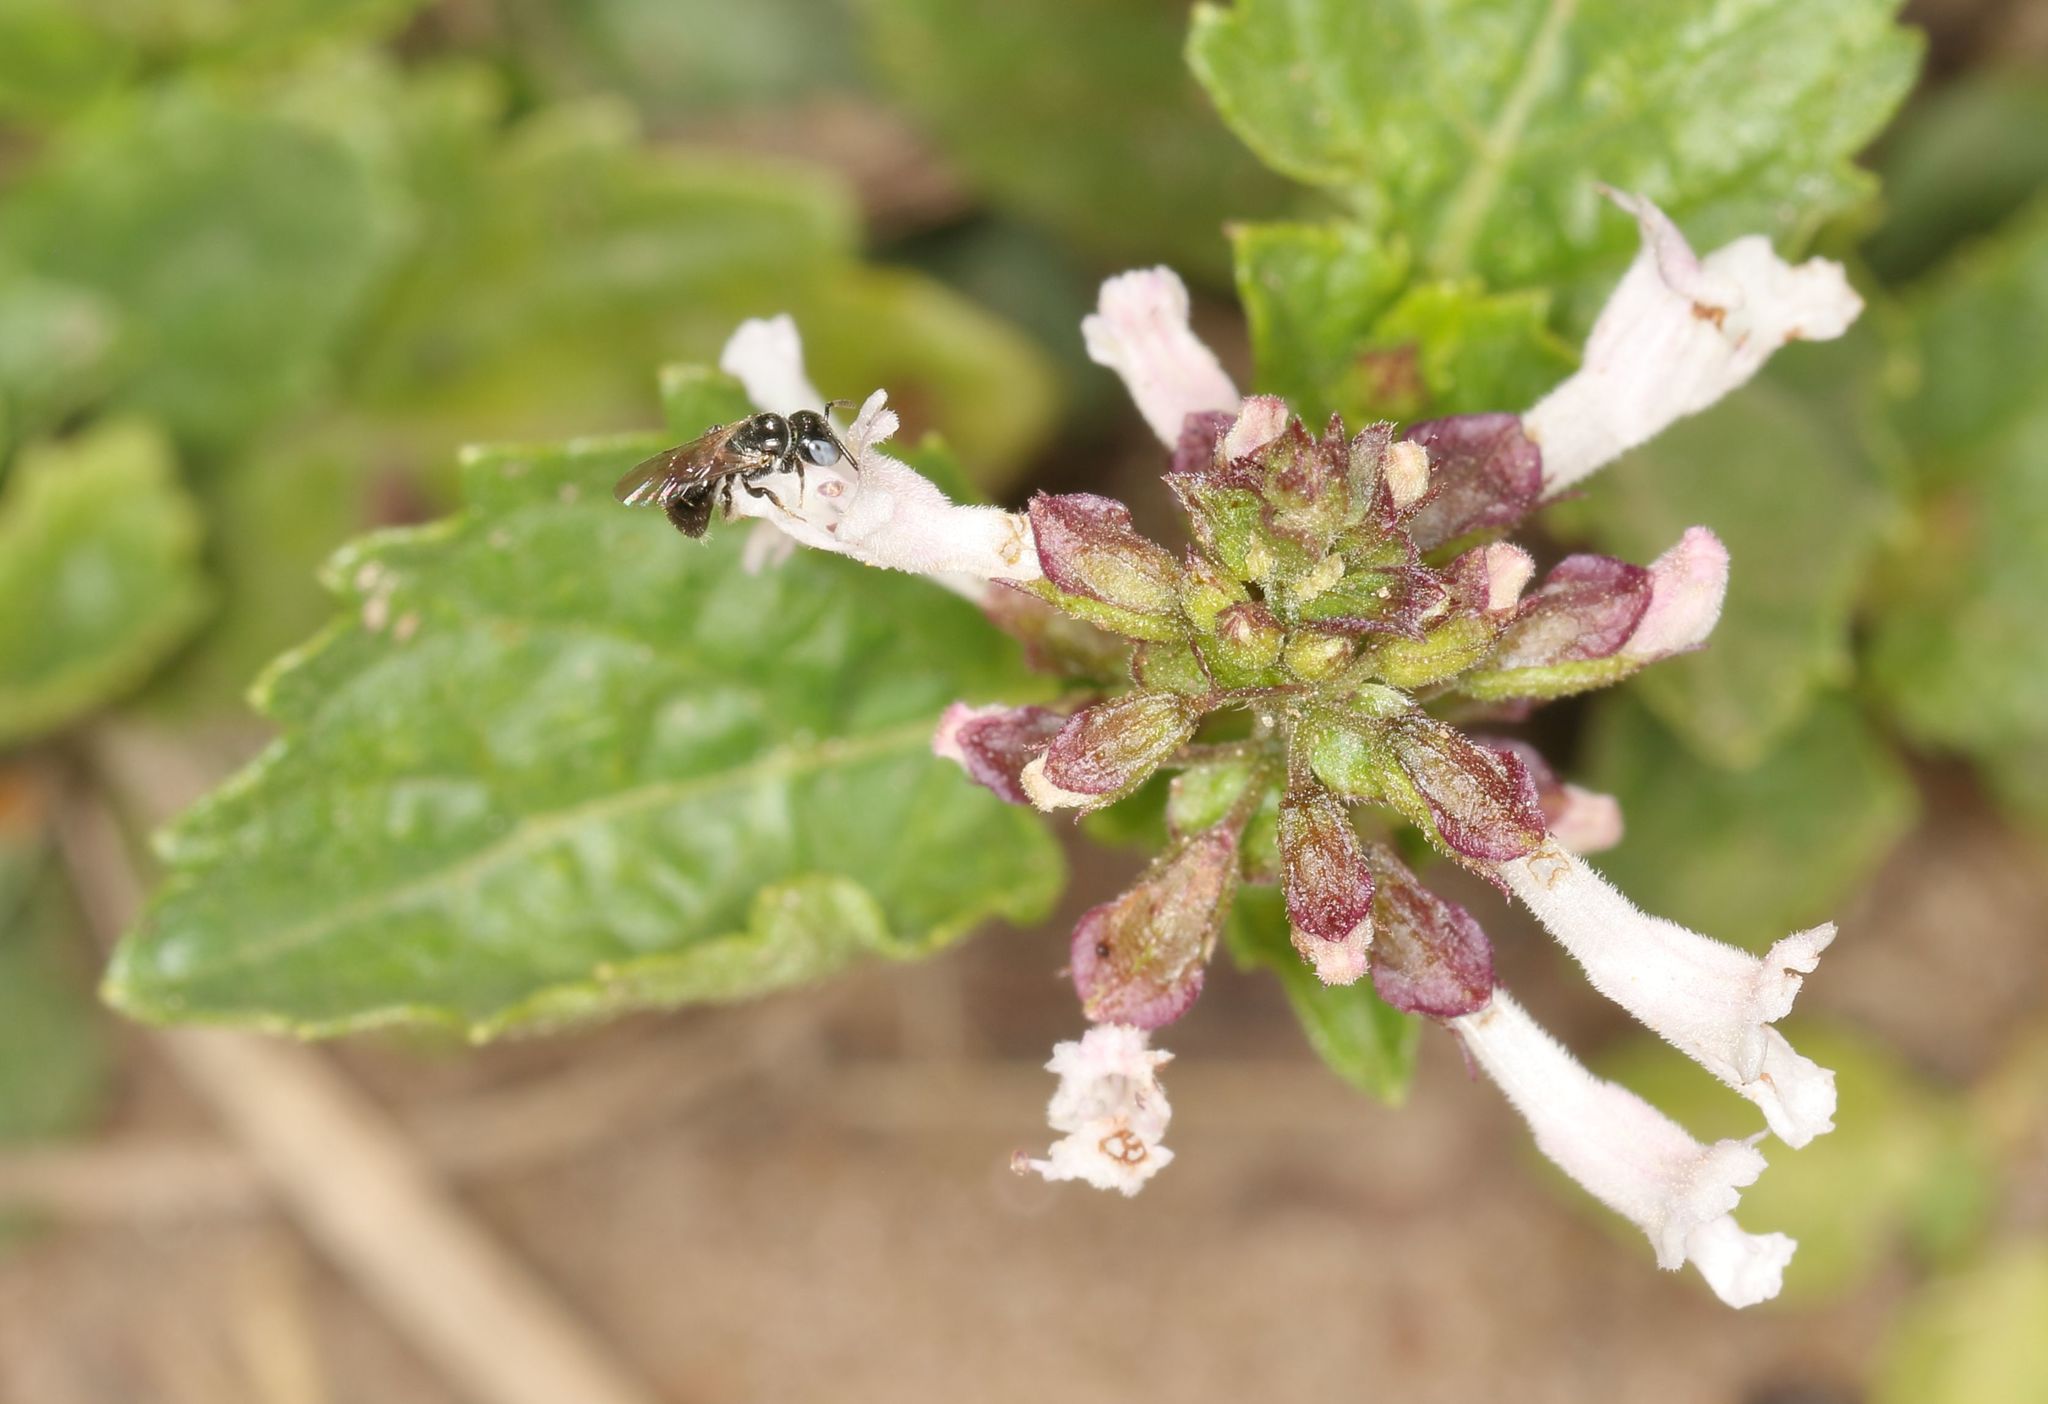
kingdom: Plantae
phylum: Tracheophyta
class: Magnoliopsida
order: Lamiales
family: Lamiaceae
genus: Stachys
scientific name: Stachys aethiopica
